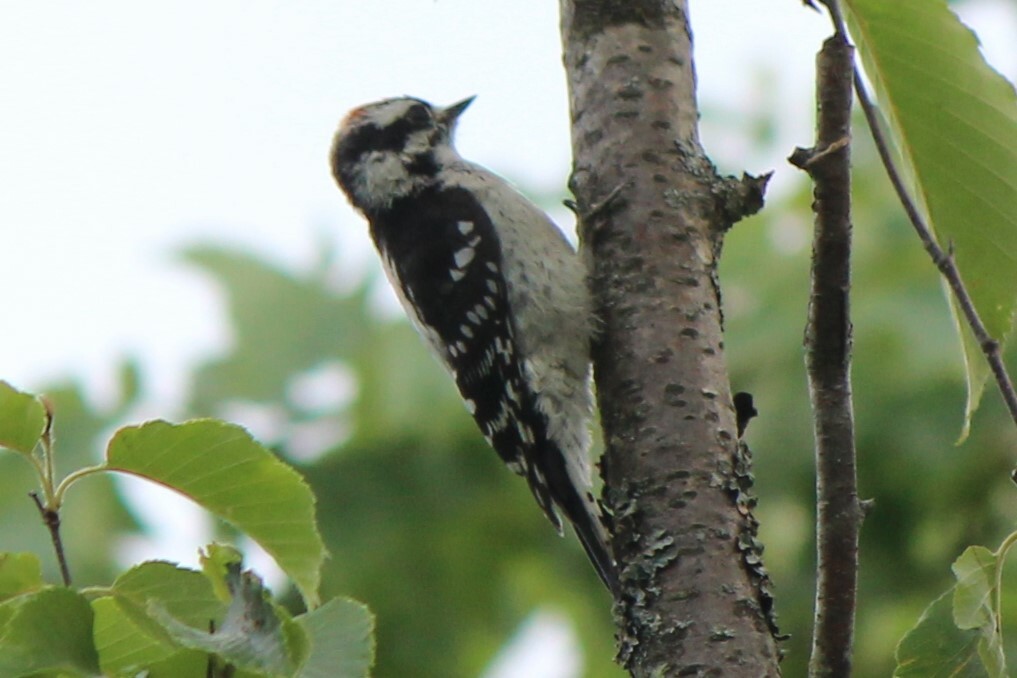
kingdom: Animalia
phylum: Chordata
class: Aves
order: Piciformes
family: Picidae
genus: Dryobates
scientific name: Dryobates pubescens
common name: Downy woodpecker
